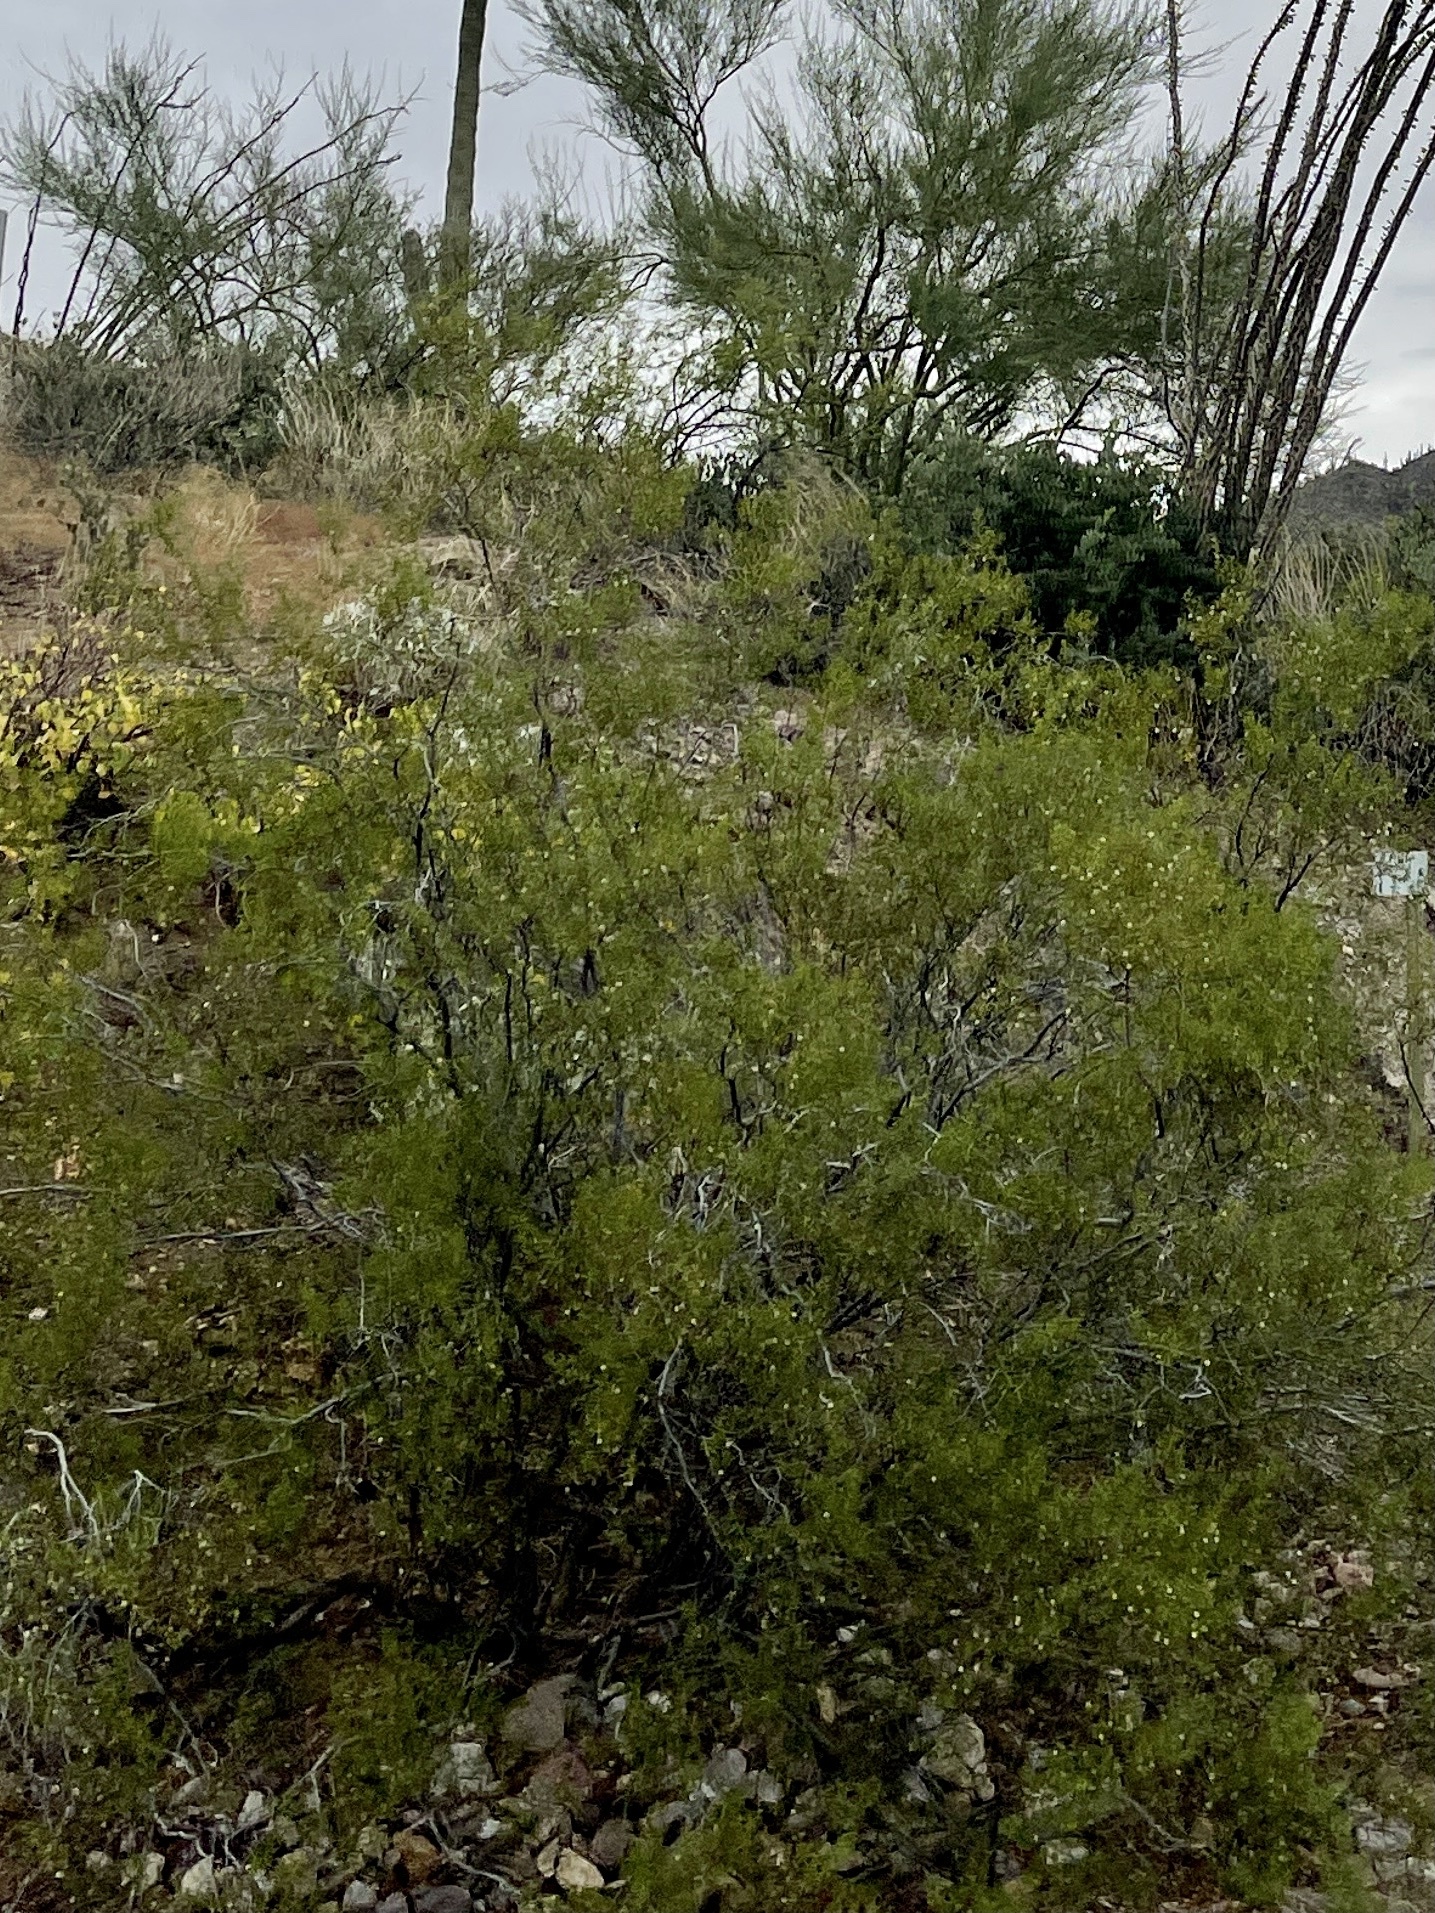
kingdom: Plantae
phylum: Tracheophyta
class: Magnoliopsida
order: Zygophyllales
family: Zygophyllaceae
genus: Larrea
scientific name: Larrea tridentata
